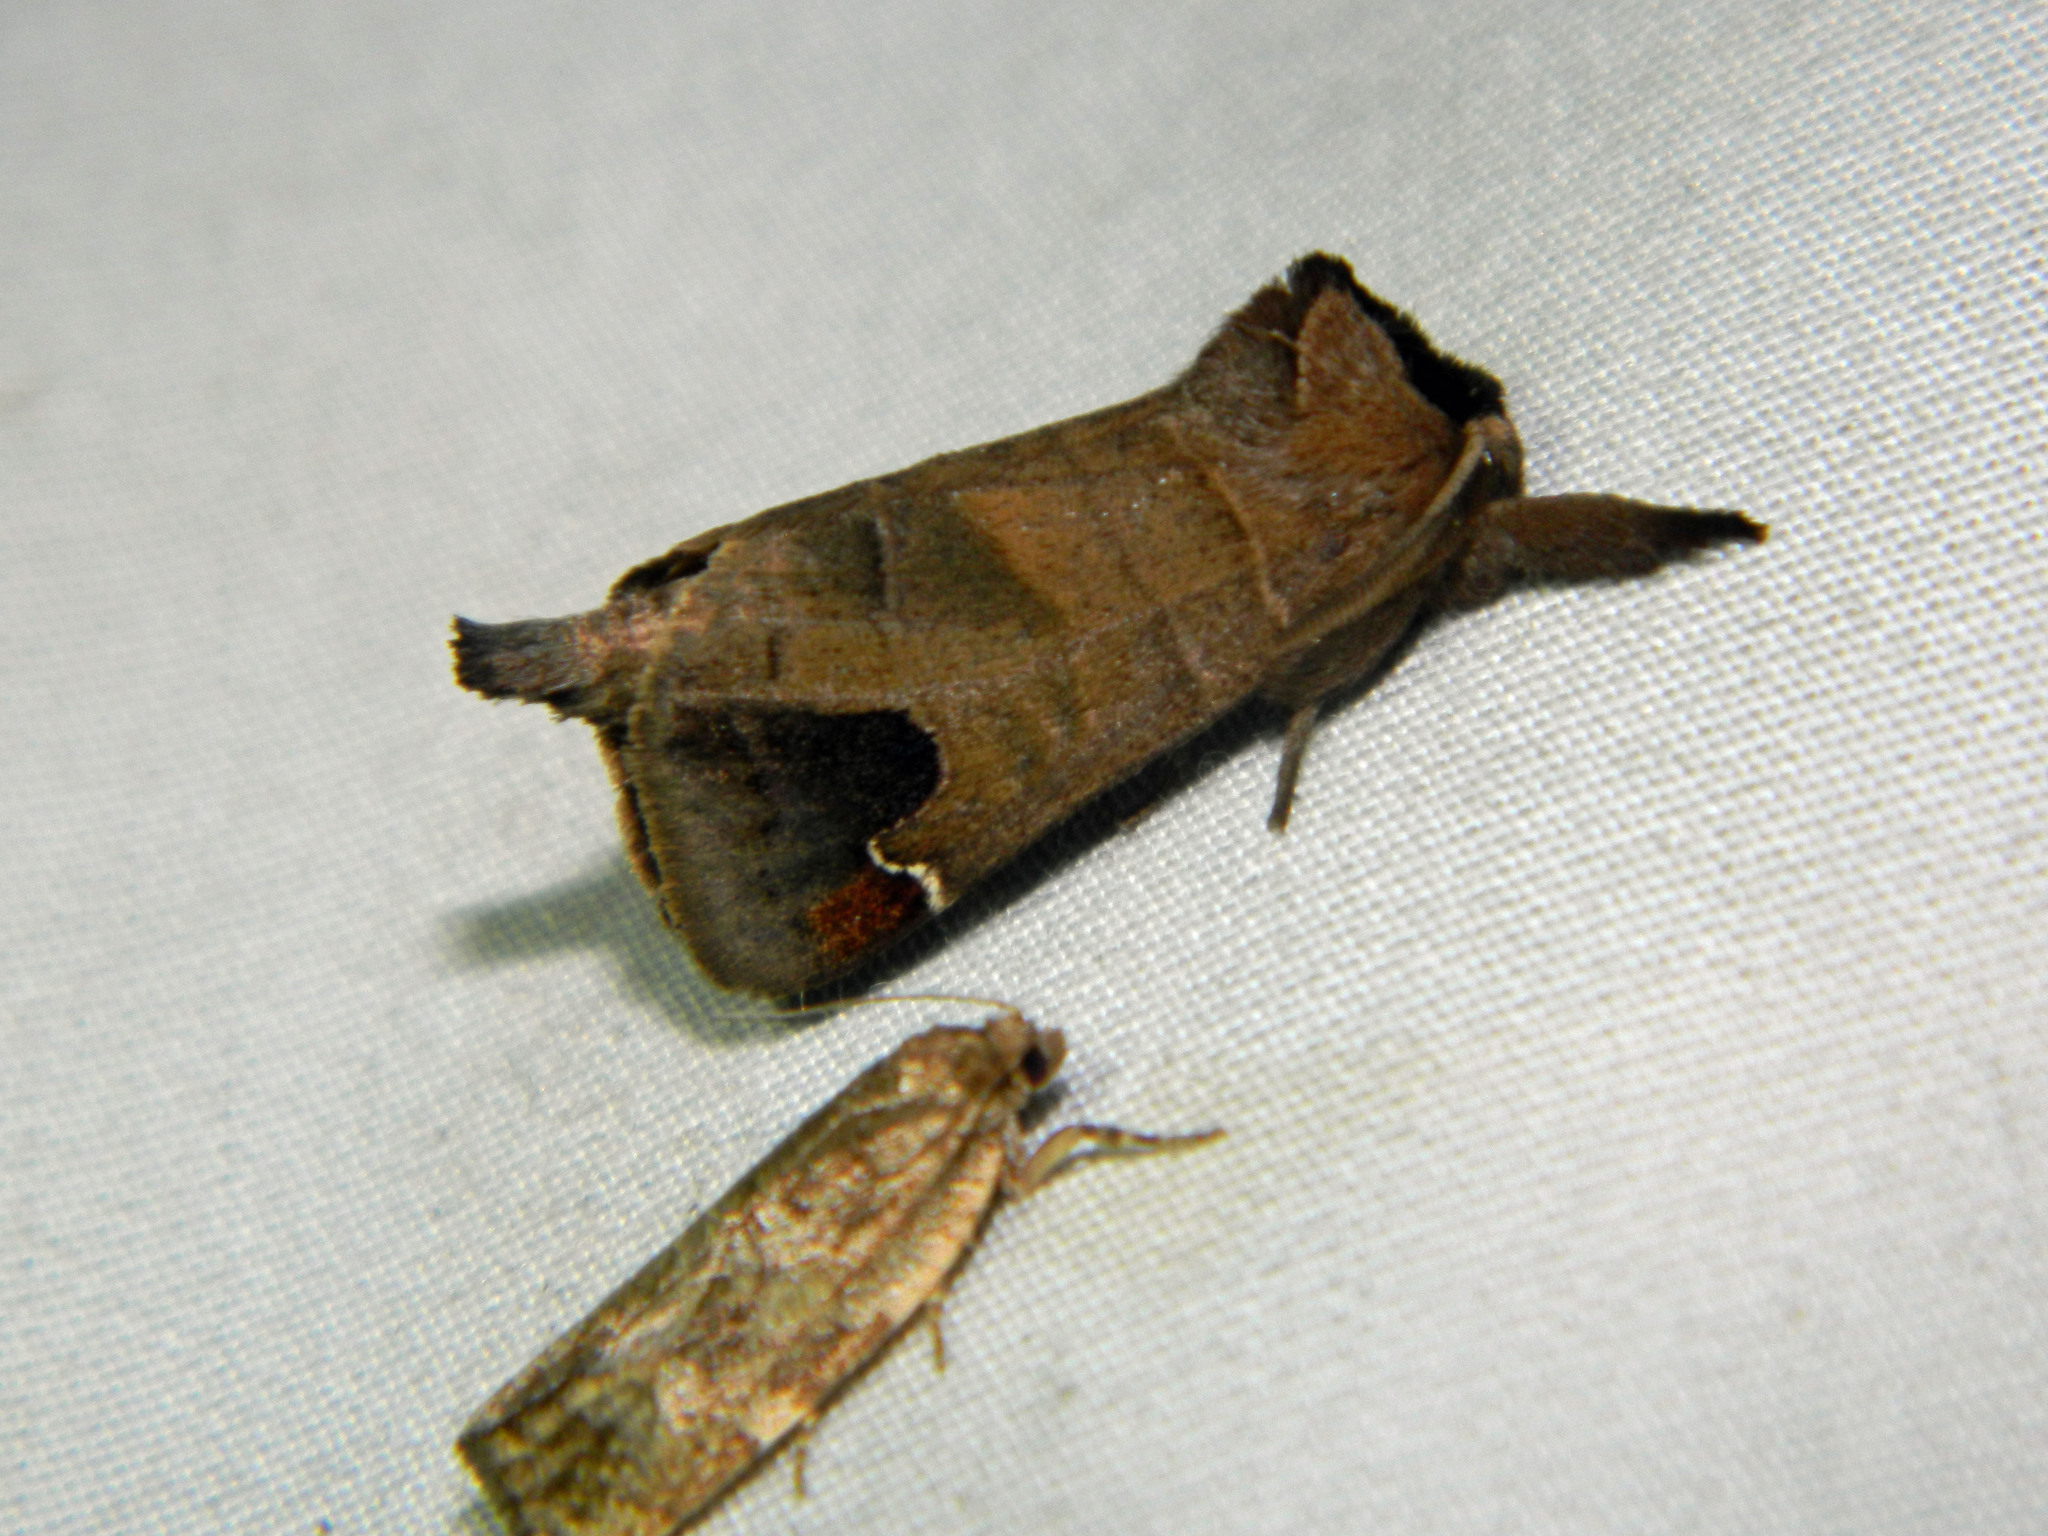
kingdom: Animalia
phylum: Arthropoda
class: Insecta
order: Lepidoptera
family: Notodontidae
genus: Clostera
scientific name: Clostera albosigma
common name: Sigmoid prominent
